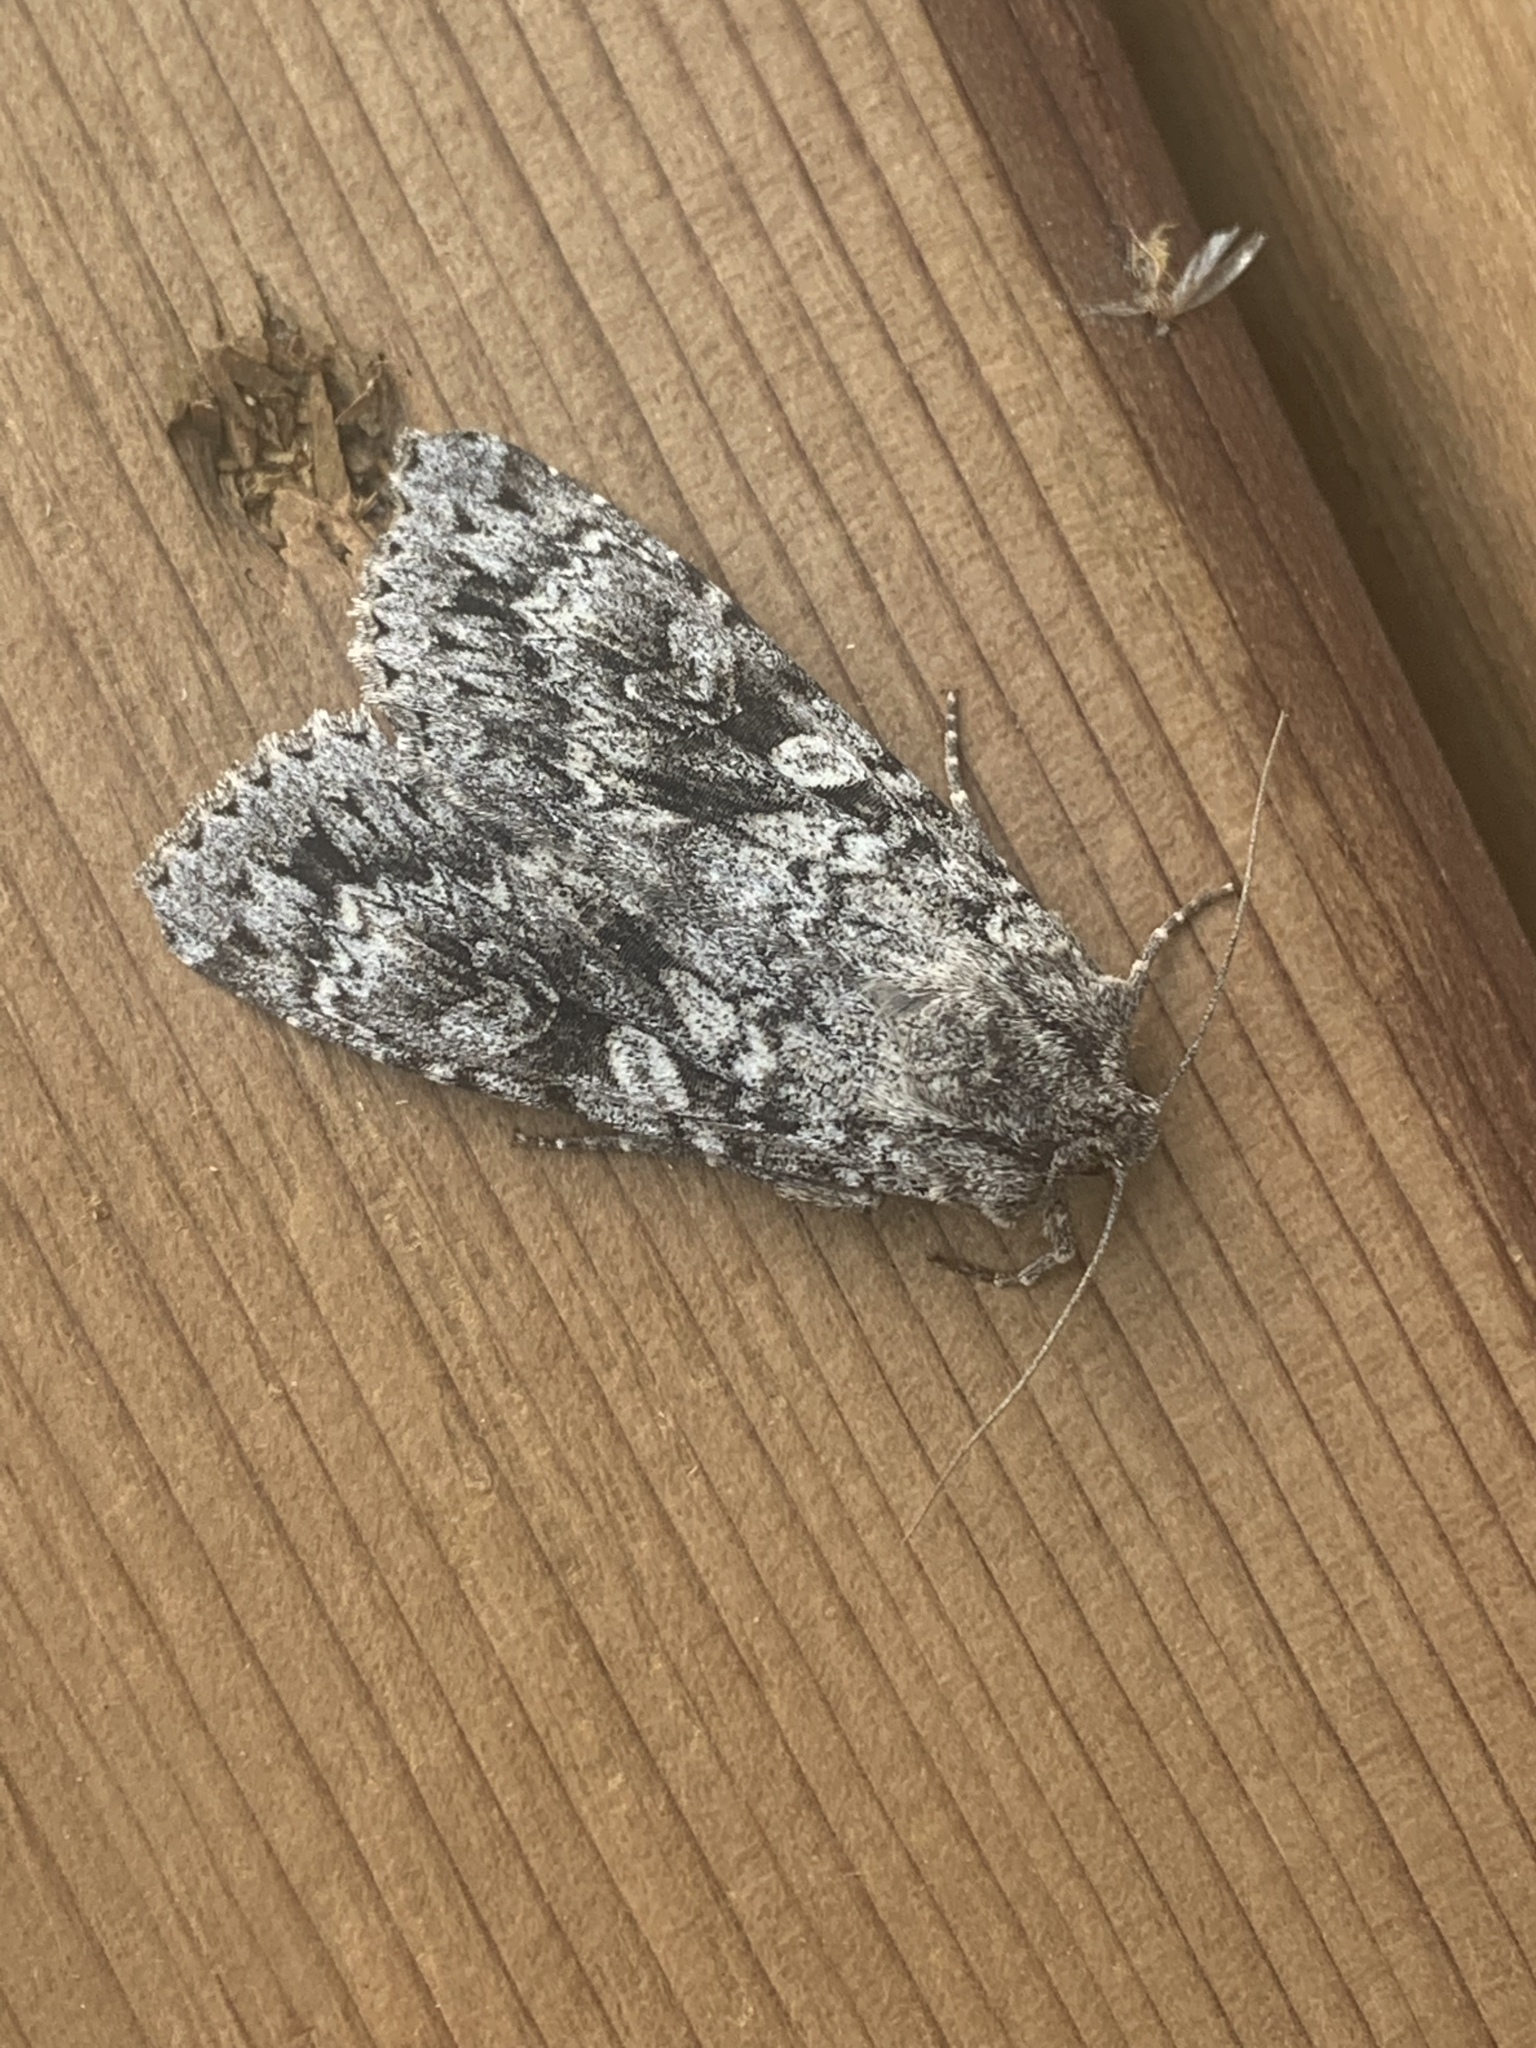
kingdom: Animalia
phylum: Arthropoda
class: Insecta
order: Lepidoptera
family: Noctuidae
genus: Eurois
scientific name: Eurois occulta
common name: Great brocade
